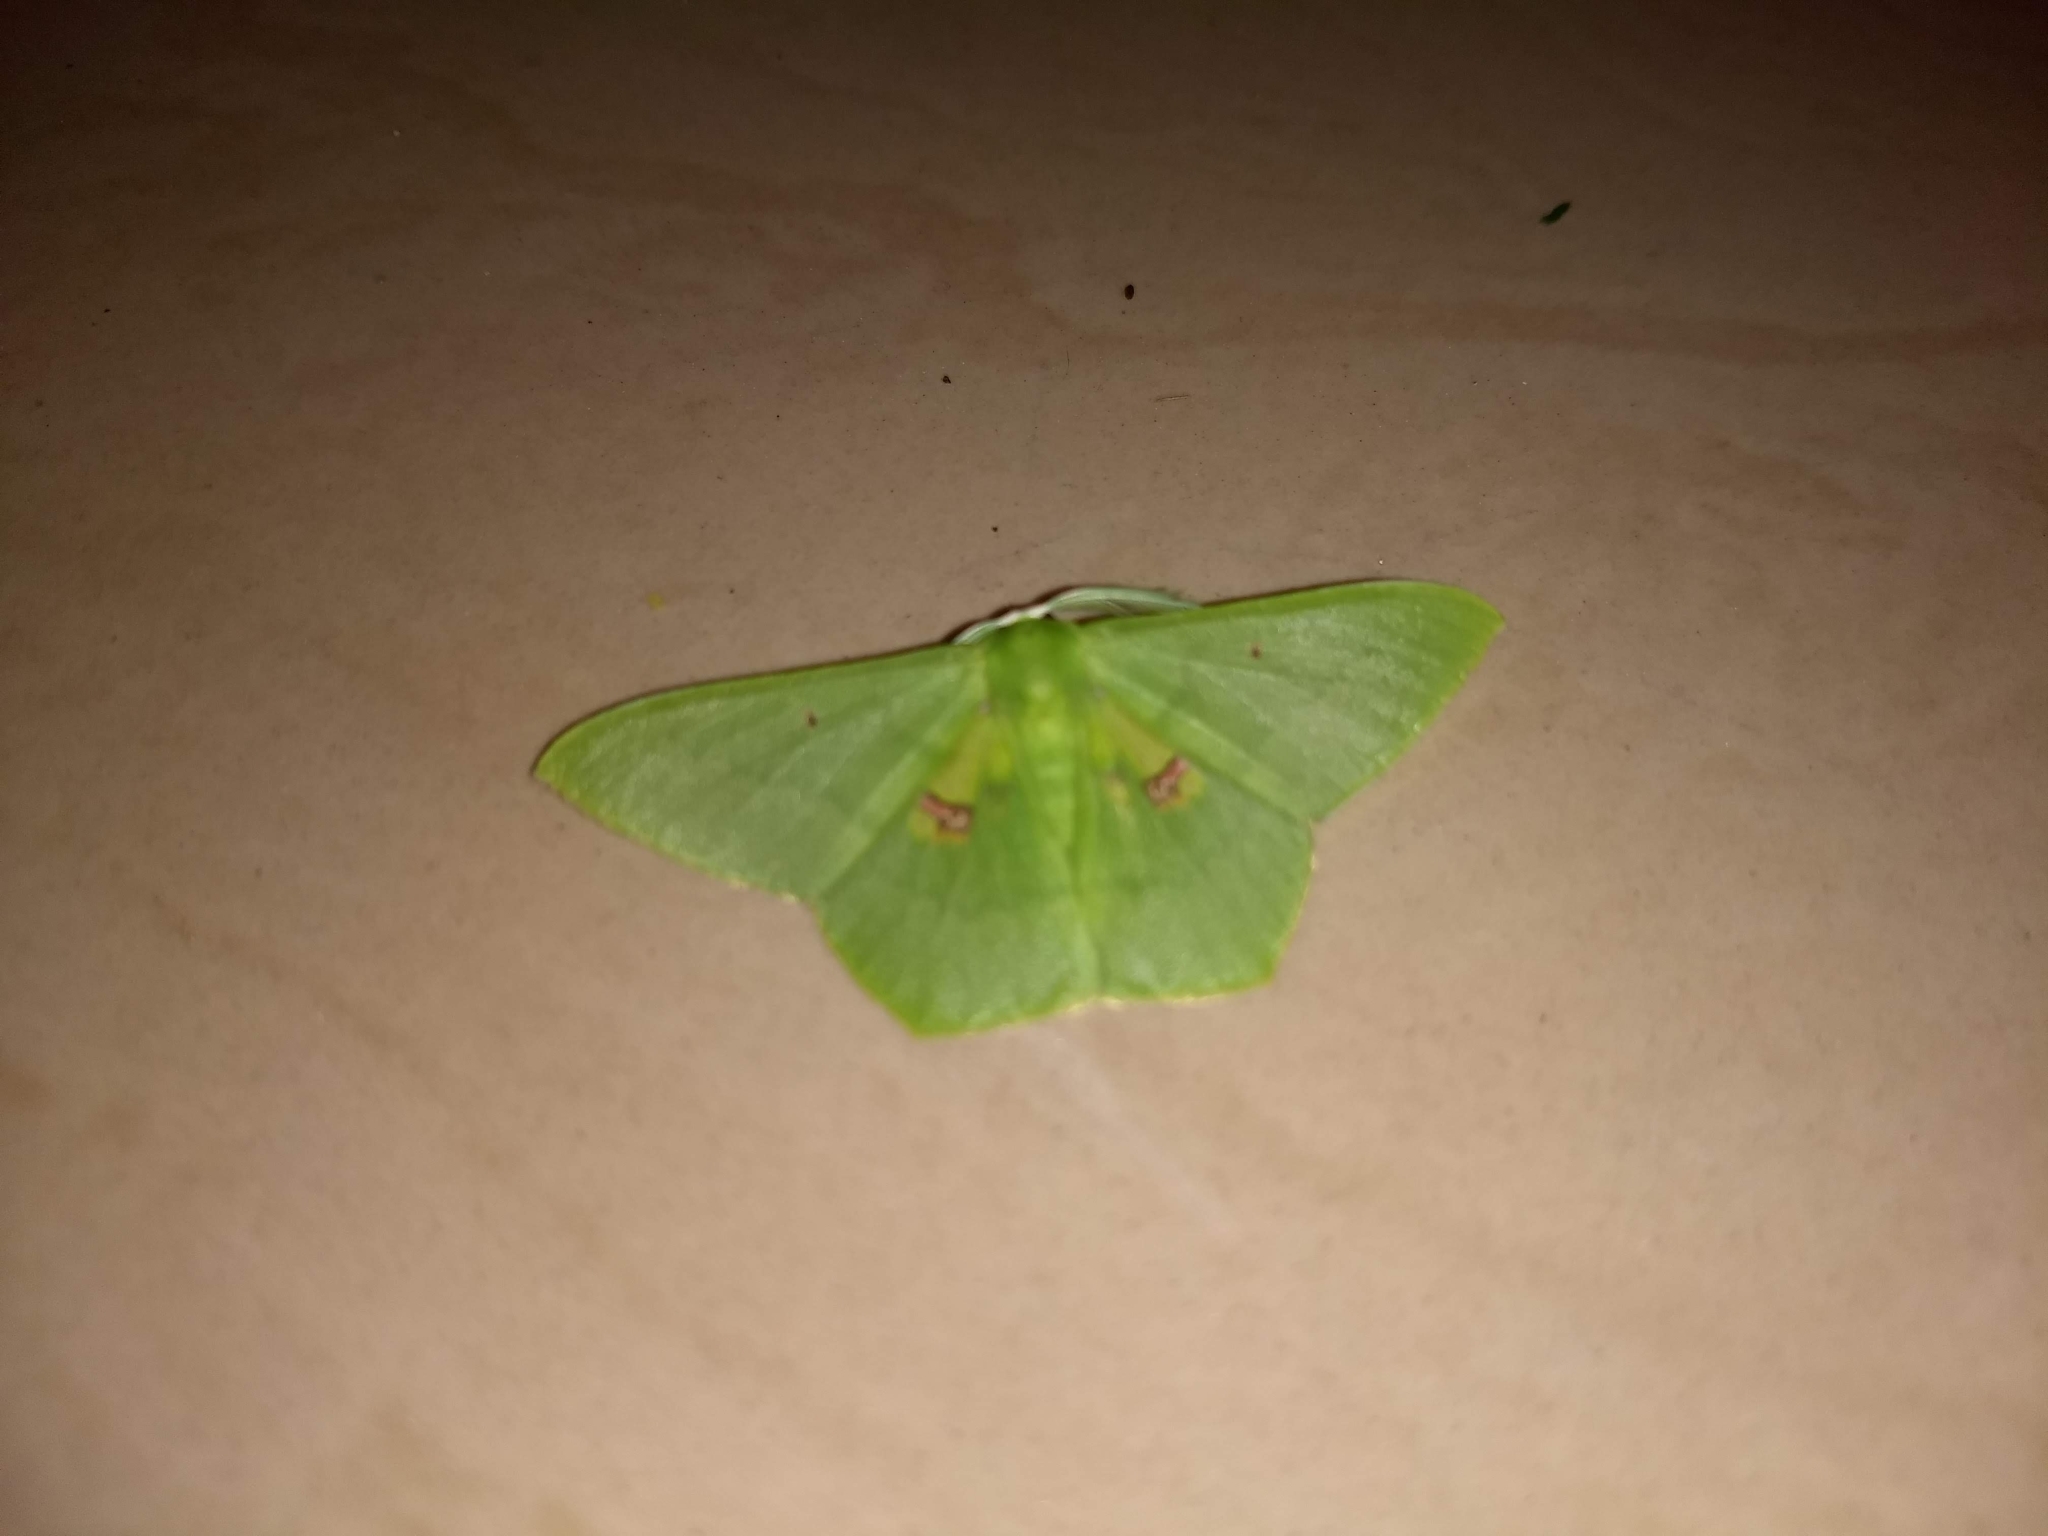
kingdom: Animalia
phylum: Arthropoda
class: Insecta
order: Lepidoptera
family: Geometridae
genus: Aporandria
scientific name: Aporandria specularia
